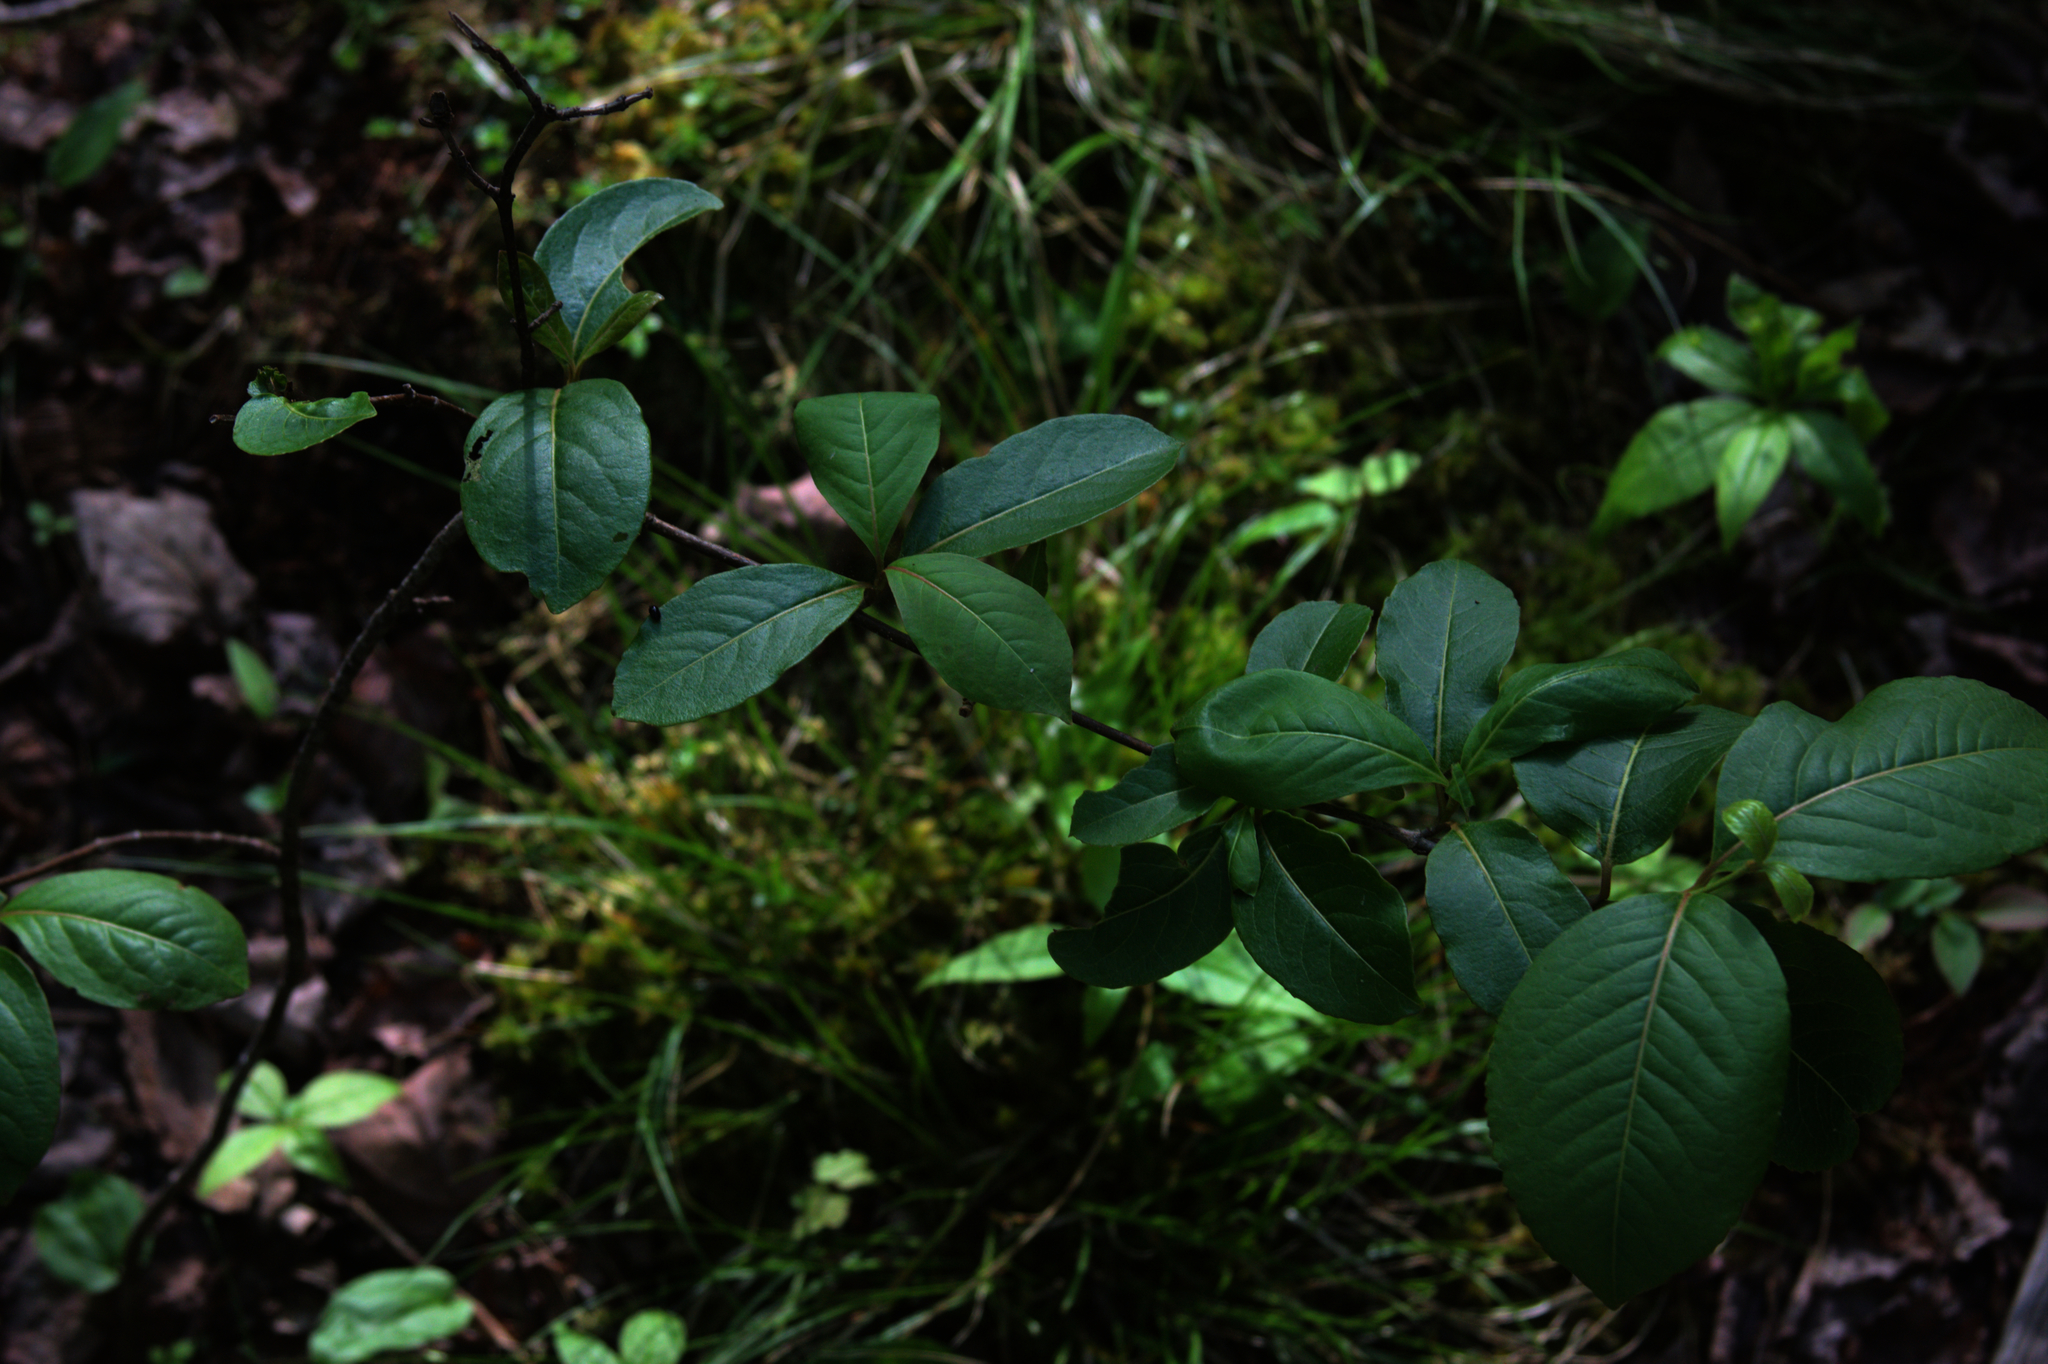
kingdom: Plantae
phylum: Tracheophyta
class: Magnoliopsida
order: Dipsacales
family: Viburnaceae
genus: Viburnum
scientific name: Viburnum cassinoides
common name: Swamp haw
